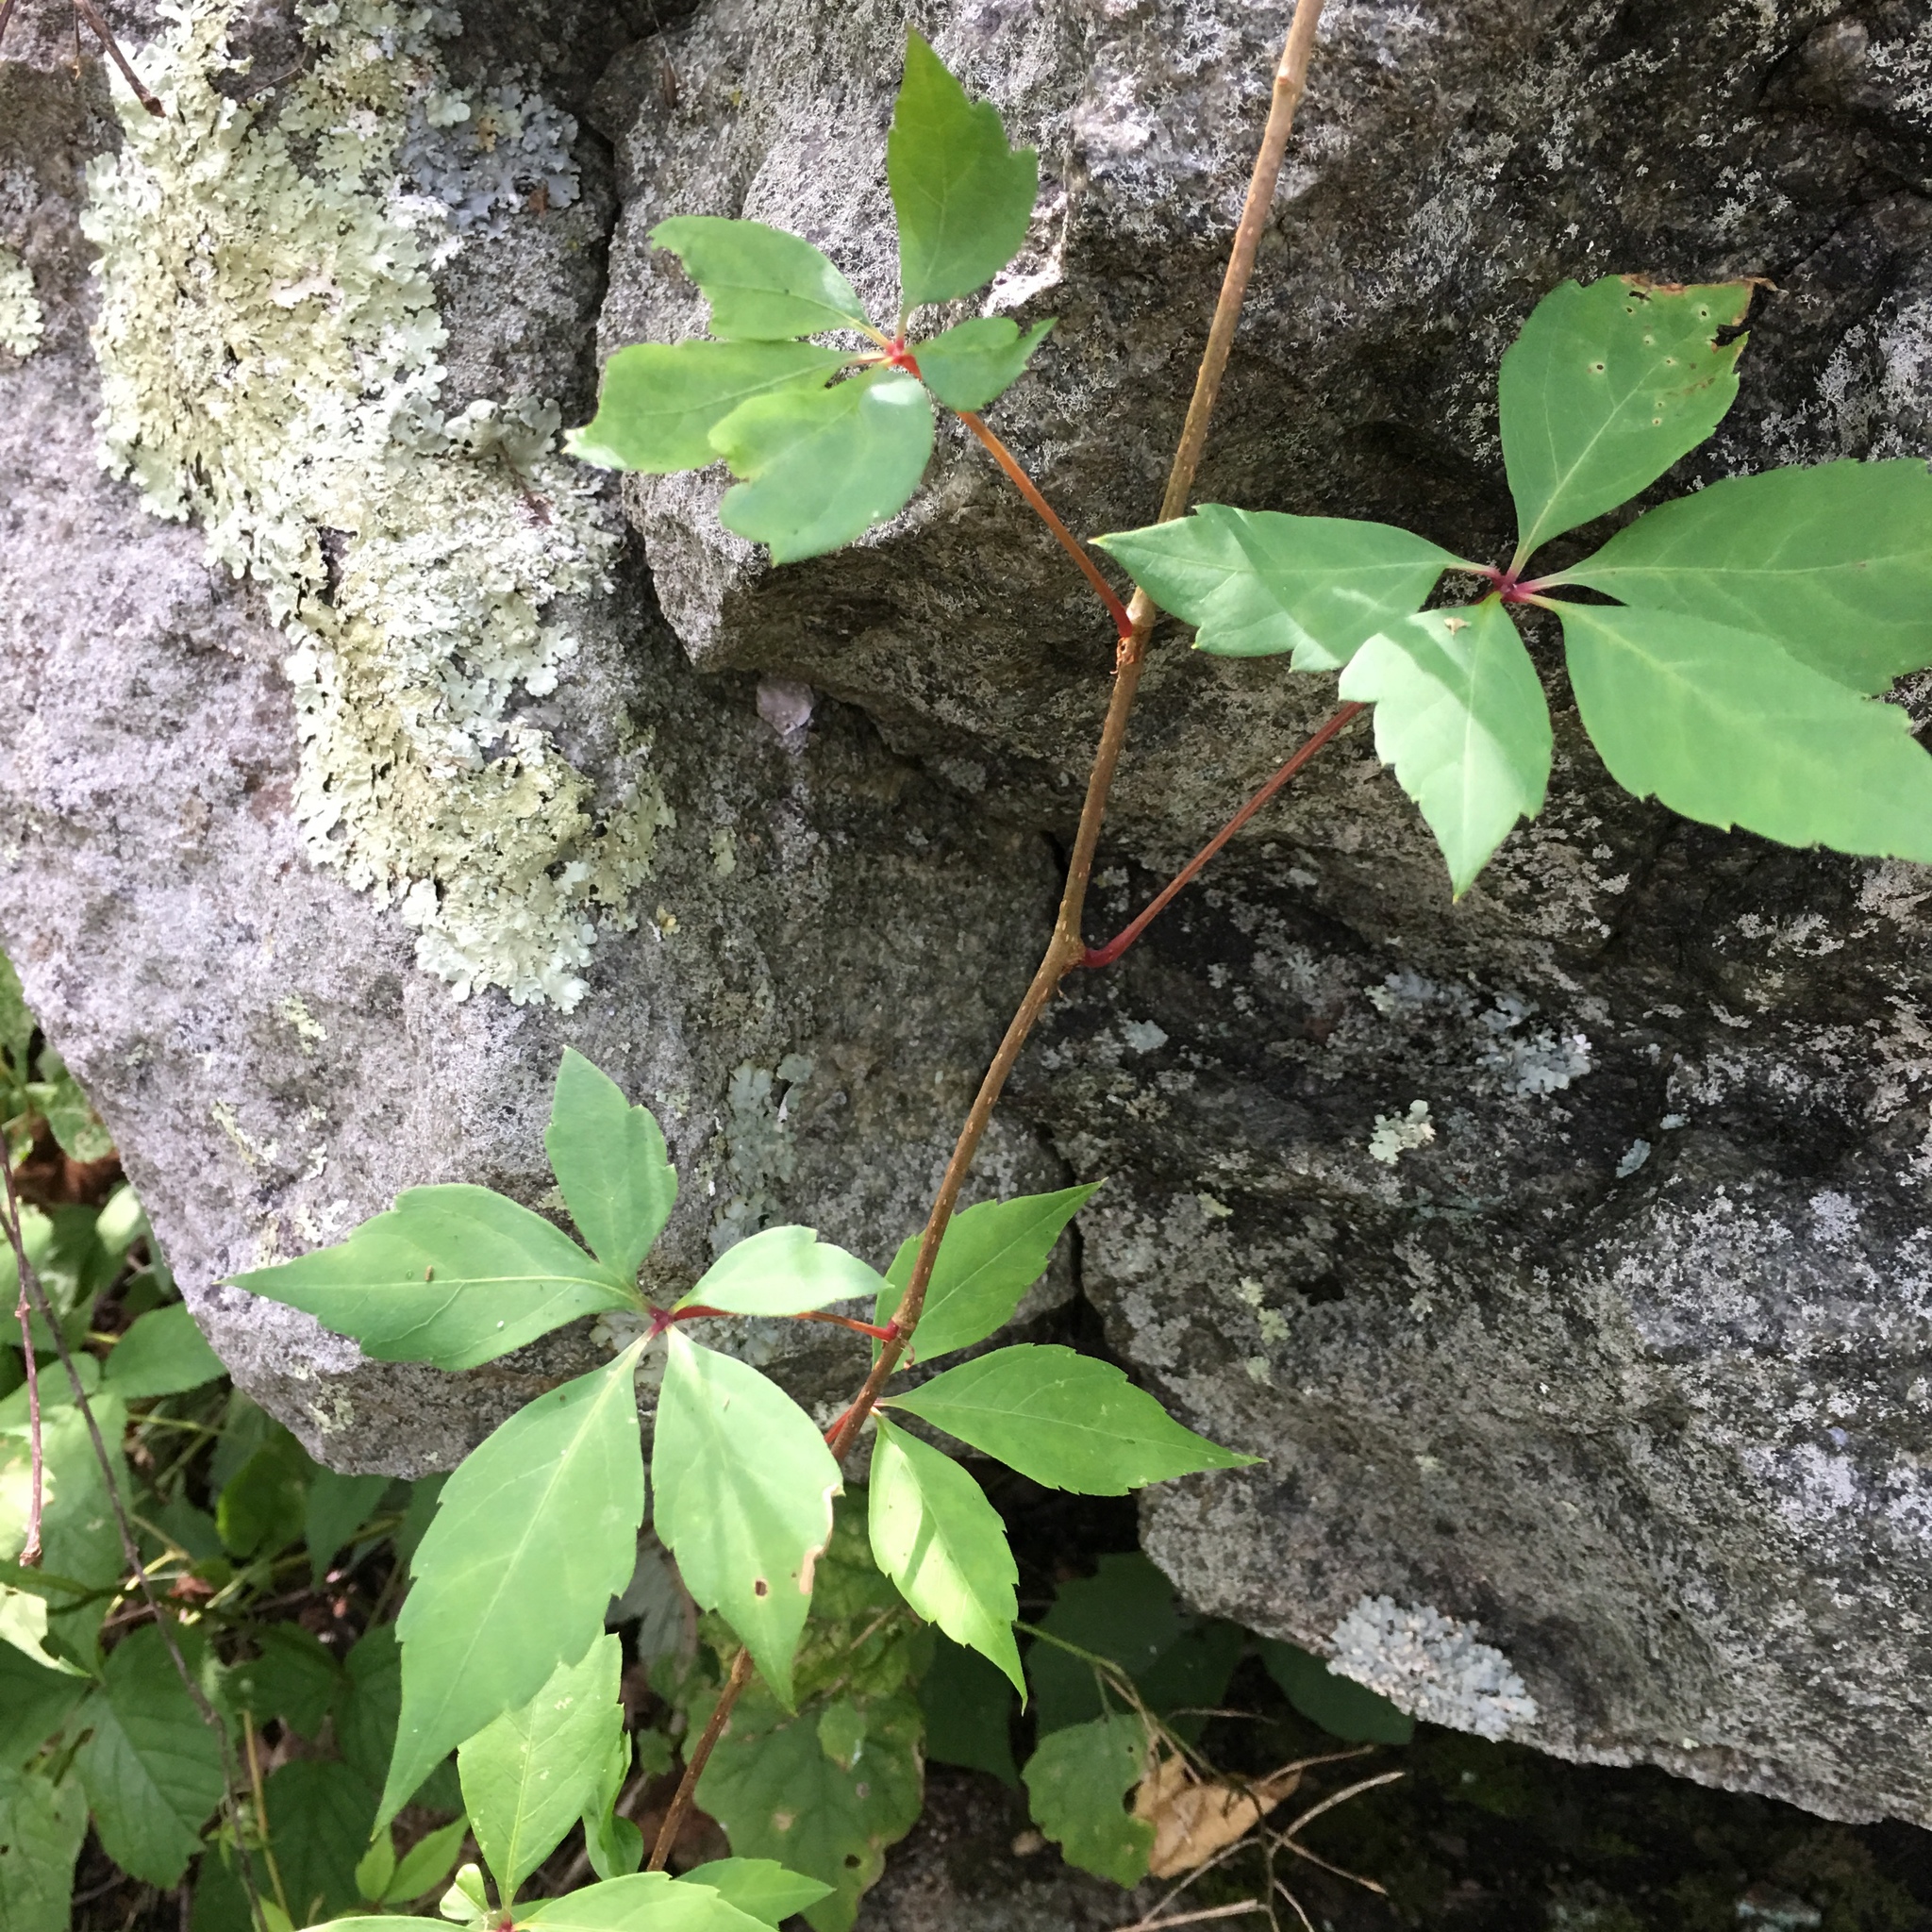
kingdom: Plantae
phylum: Tracheophyta
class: Magnoliopsida
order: Vitales
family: Vitaceae
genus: Parthenocissus
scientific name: Parthenocissus quinquefolia
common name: Virginia-creeper
